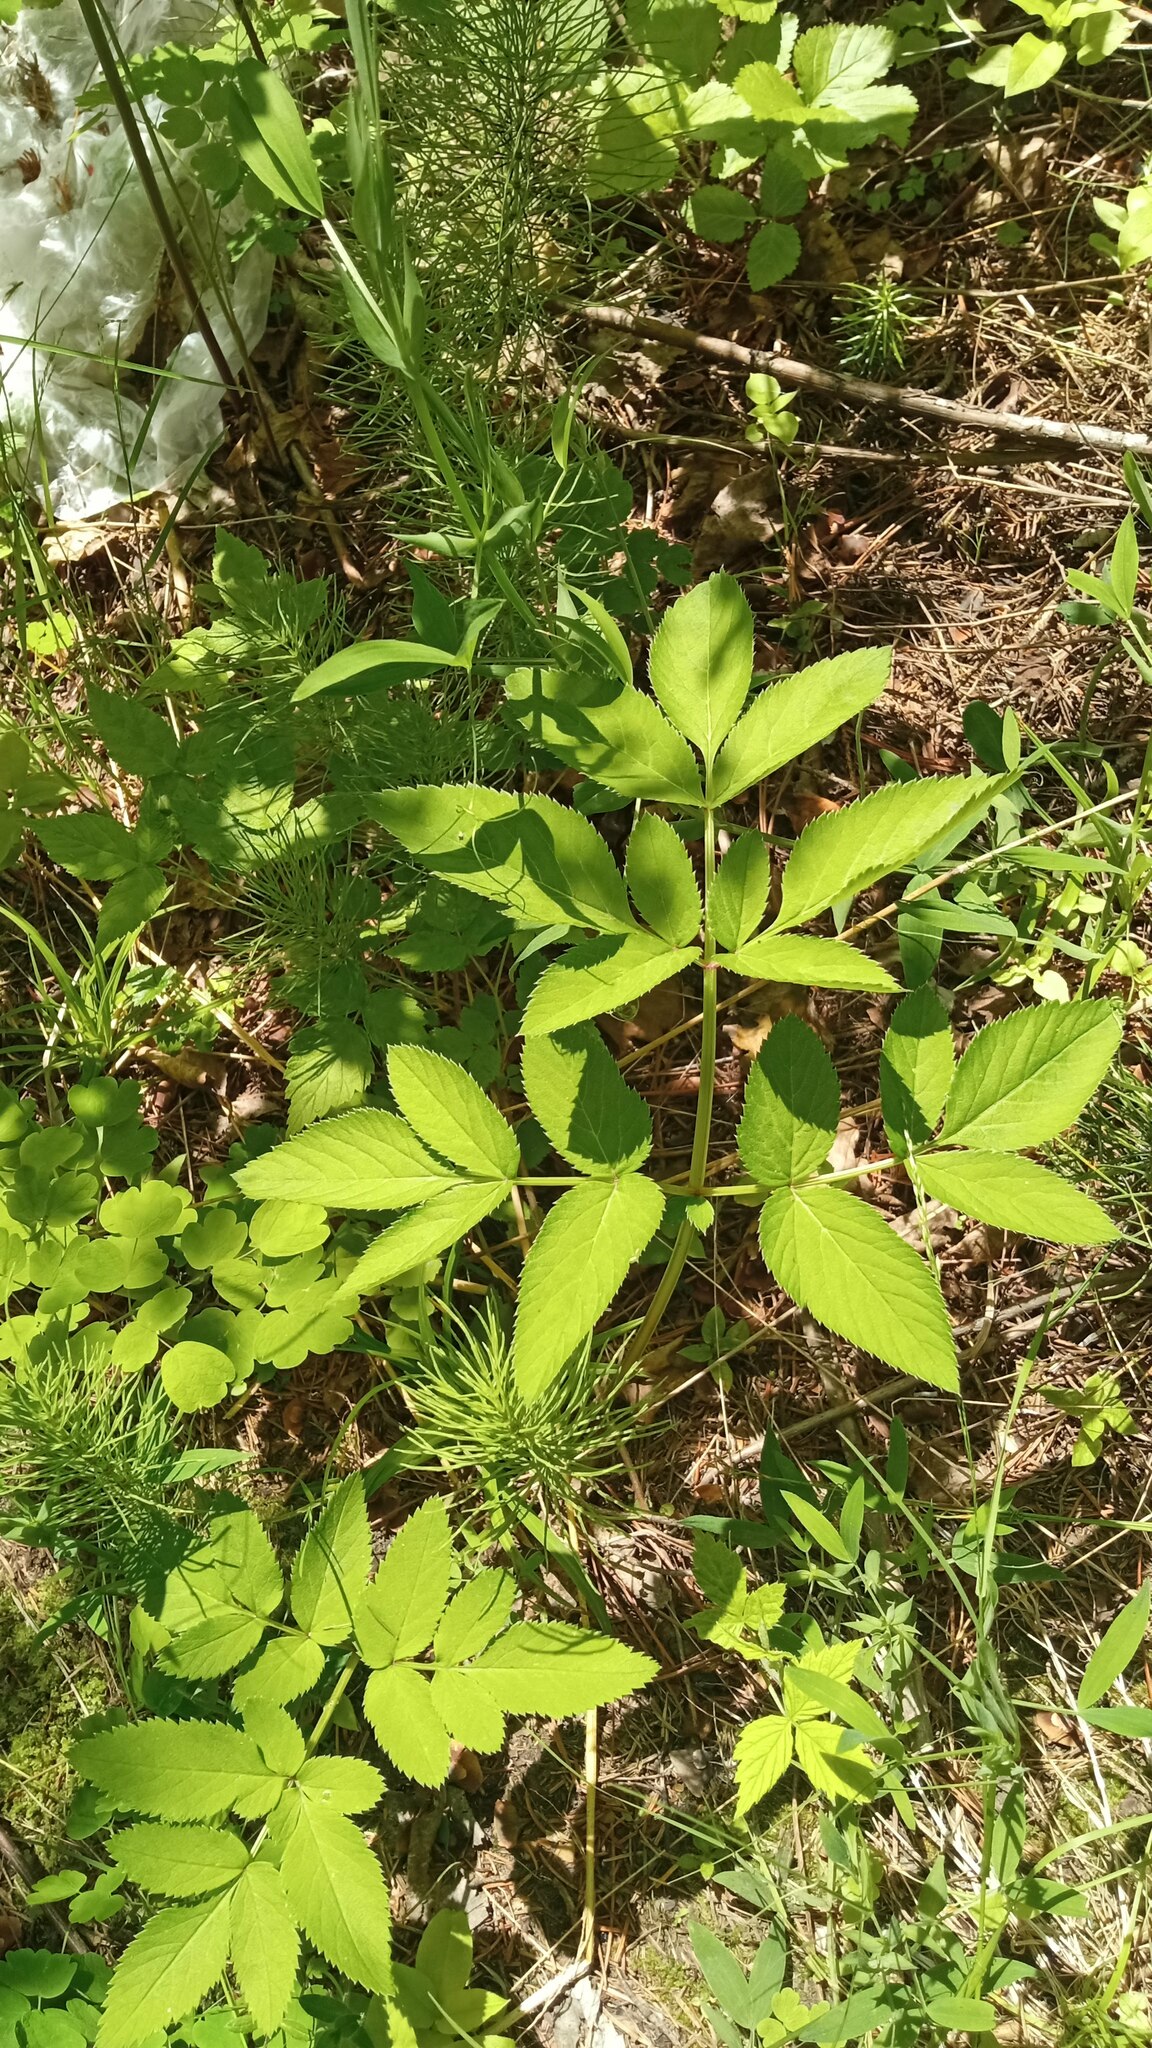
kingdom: Plantae
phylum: Tracheophyta
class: Magnoliopsida
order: Apiales
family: Apiaceae
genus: Aegopodium
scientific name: Aegopodium podagraria
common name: Ground-elder
